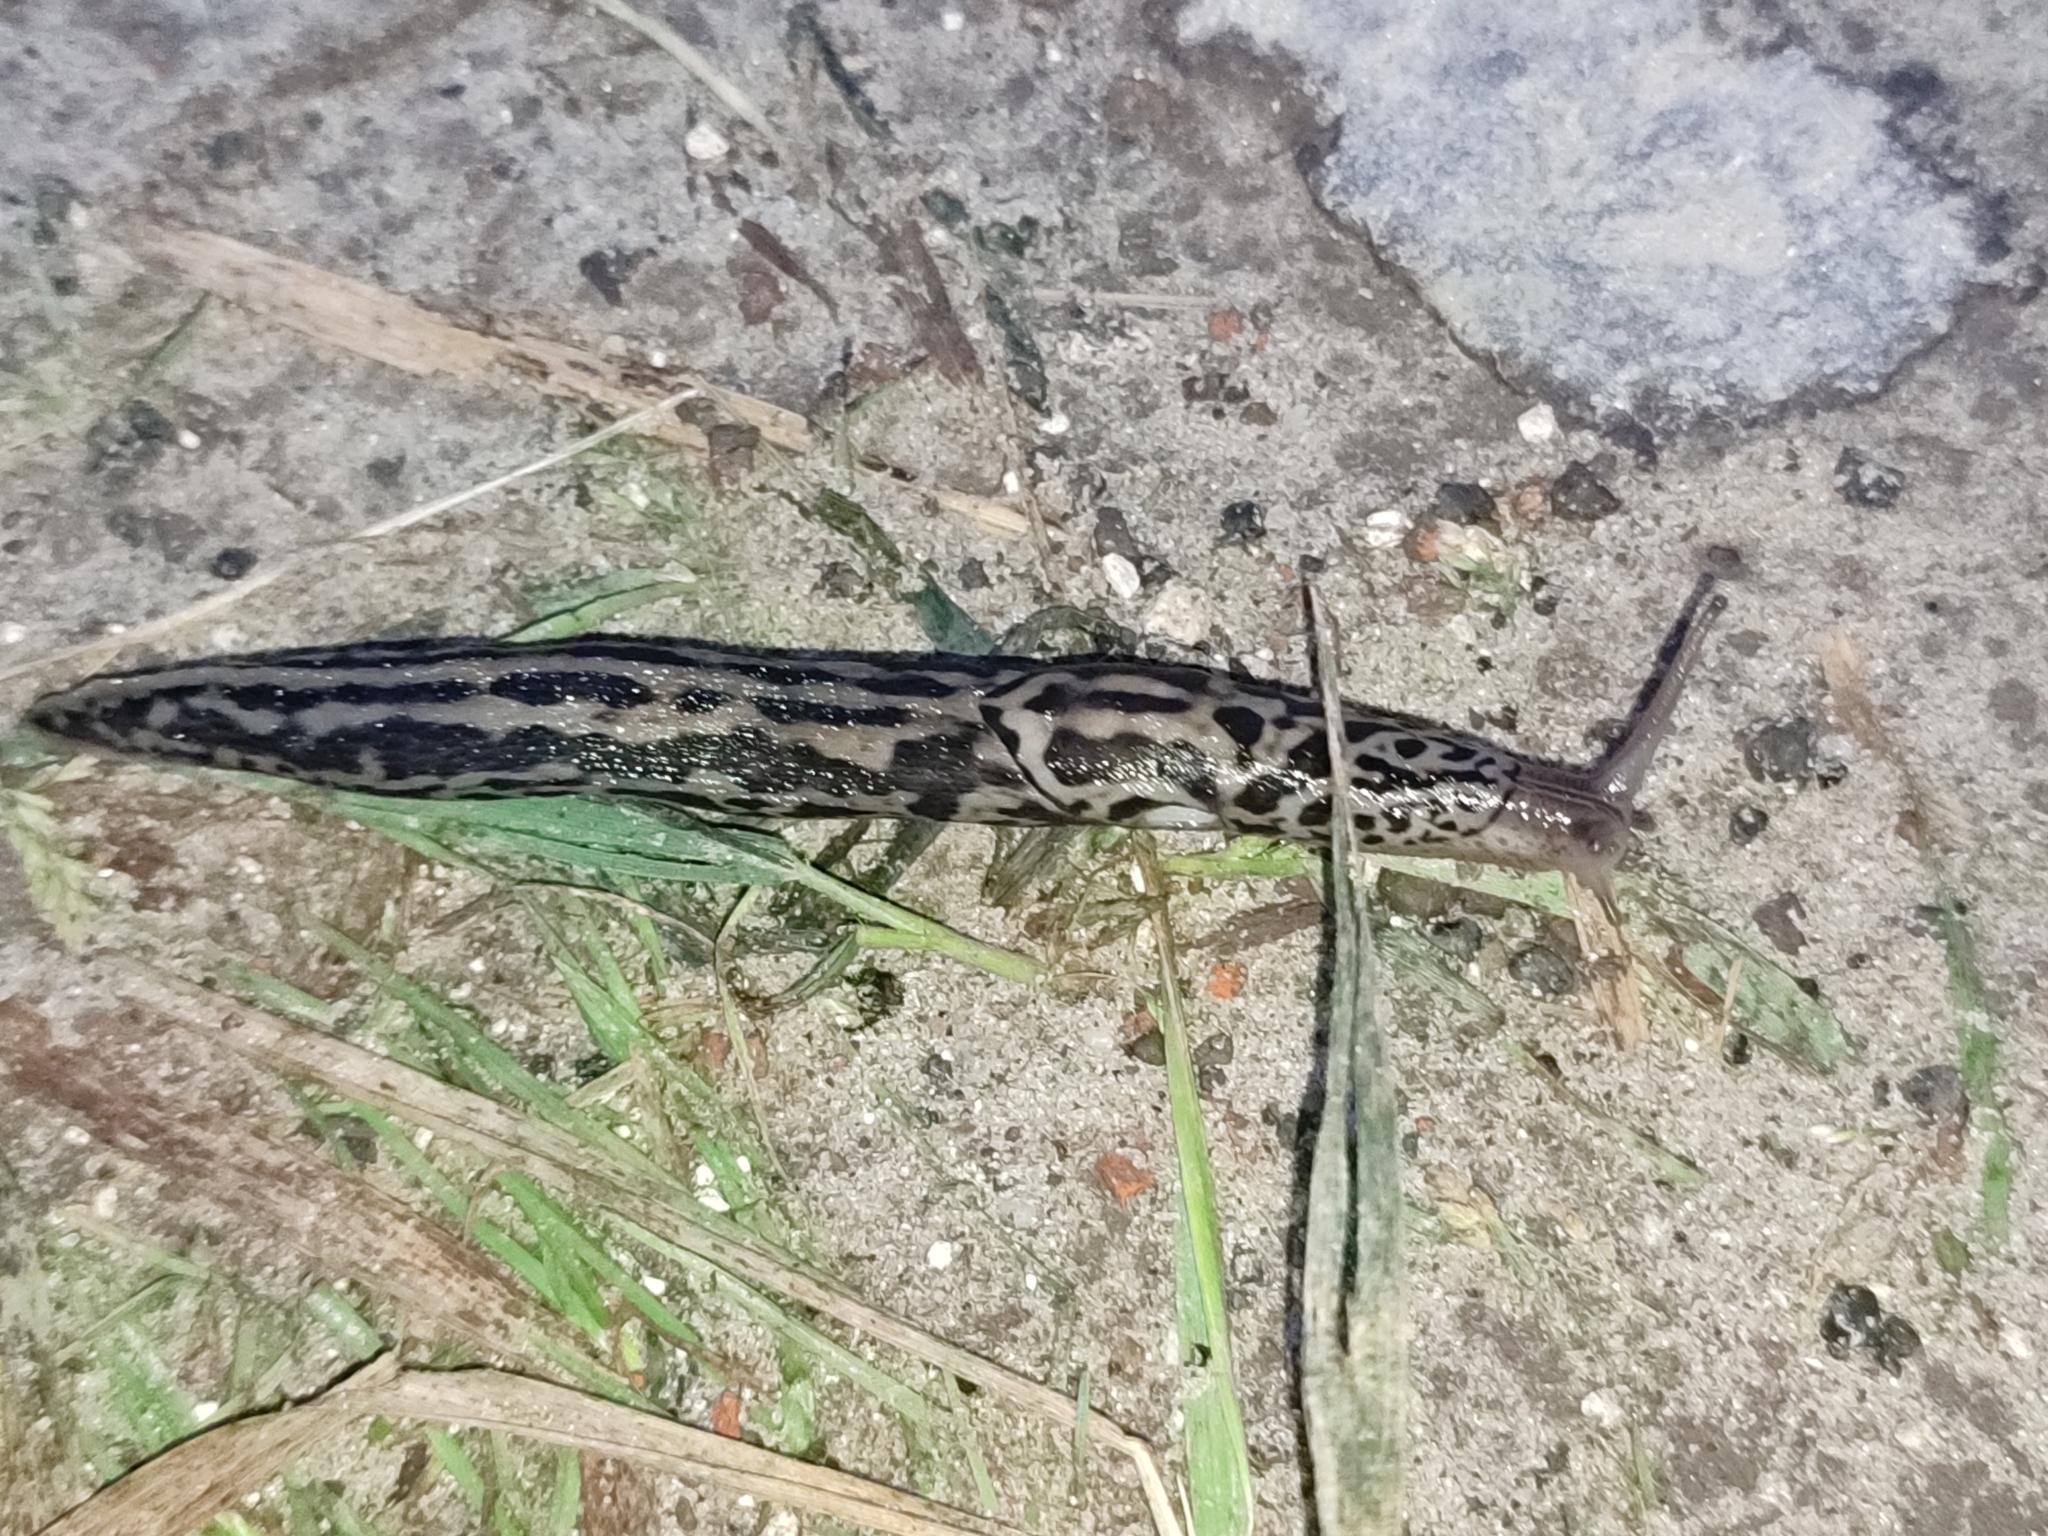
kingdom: Animalia
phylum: Mollusca
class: Gastropoda
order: Stylommatophora
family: Limacidae
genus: Limax
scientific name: Limax maximus
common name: Great grey slug
